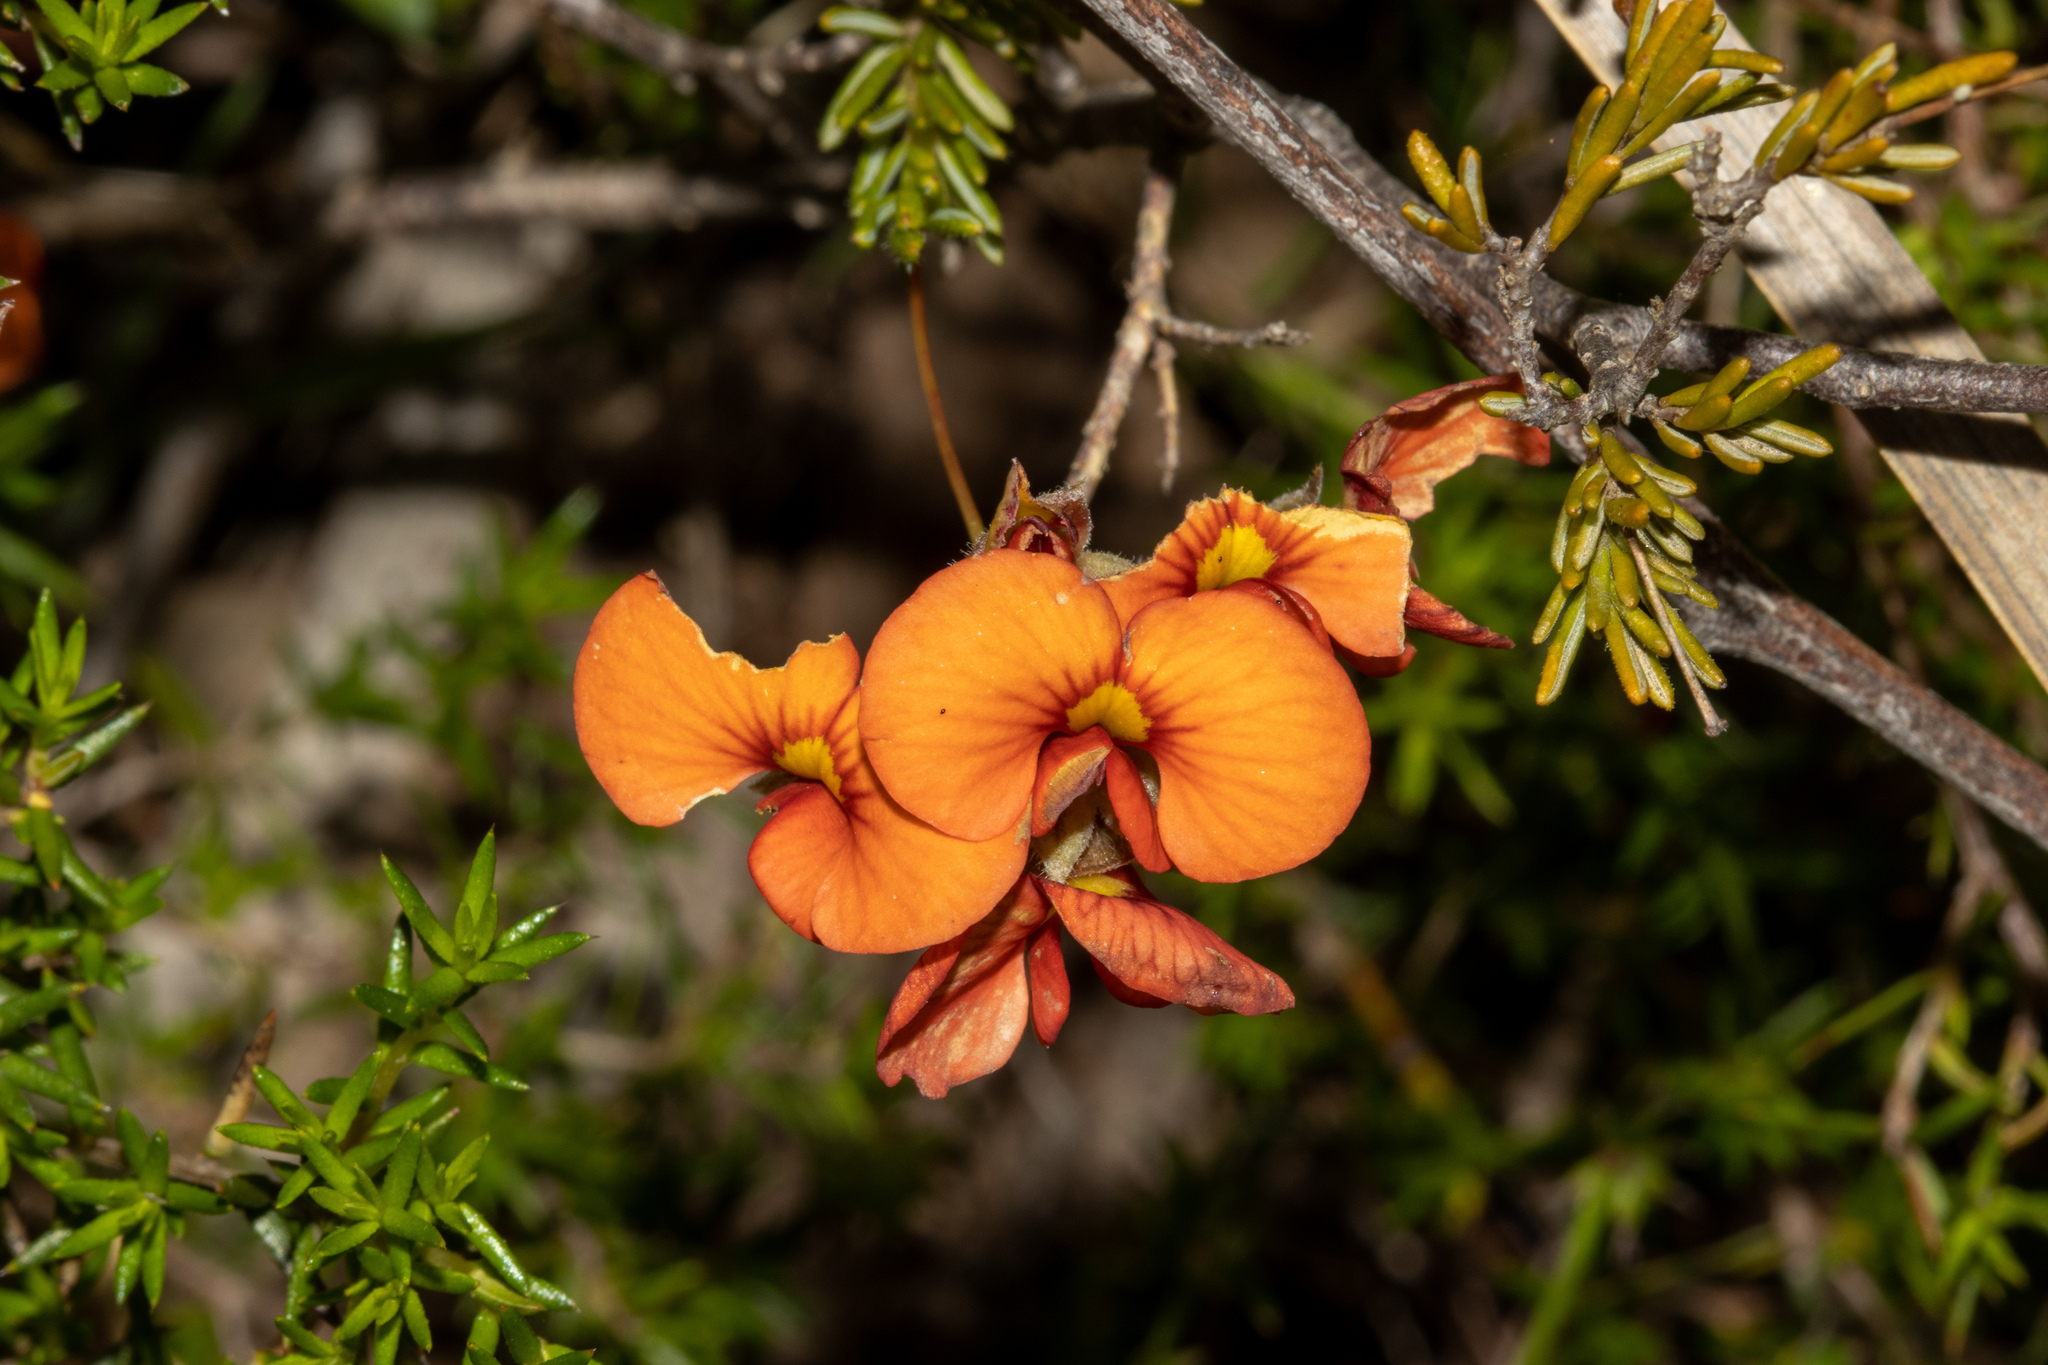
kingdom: Plantae
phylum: Tracheophyta
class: Magnoliopsida
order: Fabales
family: Fabaceae
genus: Dillwynia
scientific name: Dillwynia hispida
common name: Red parrot-pea
